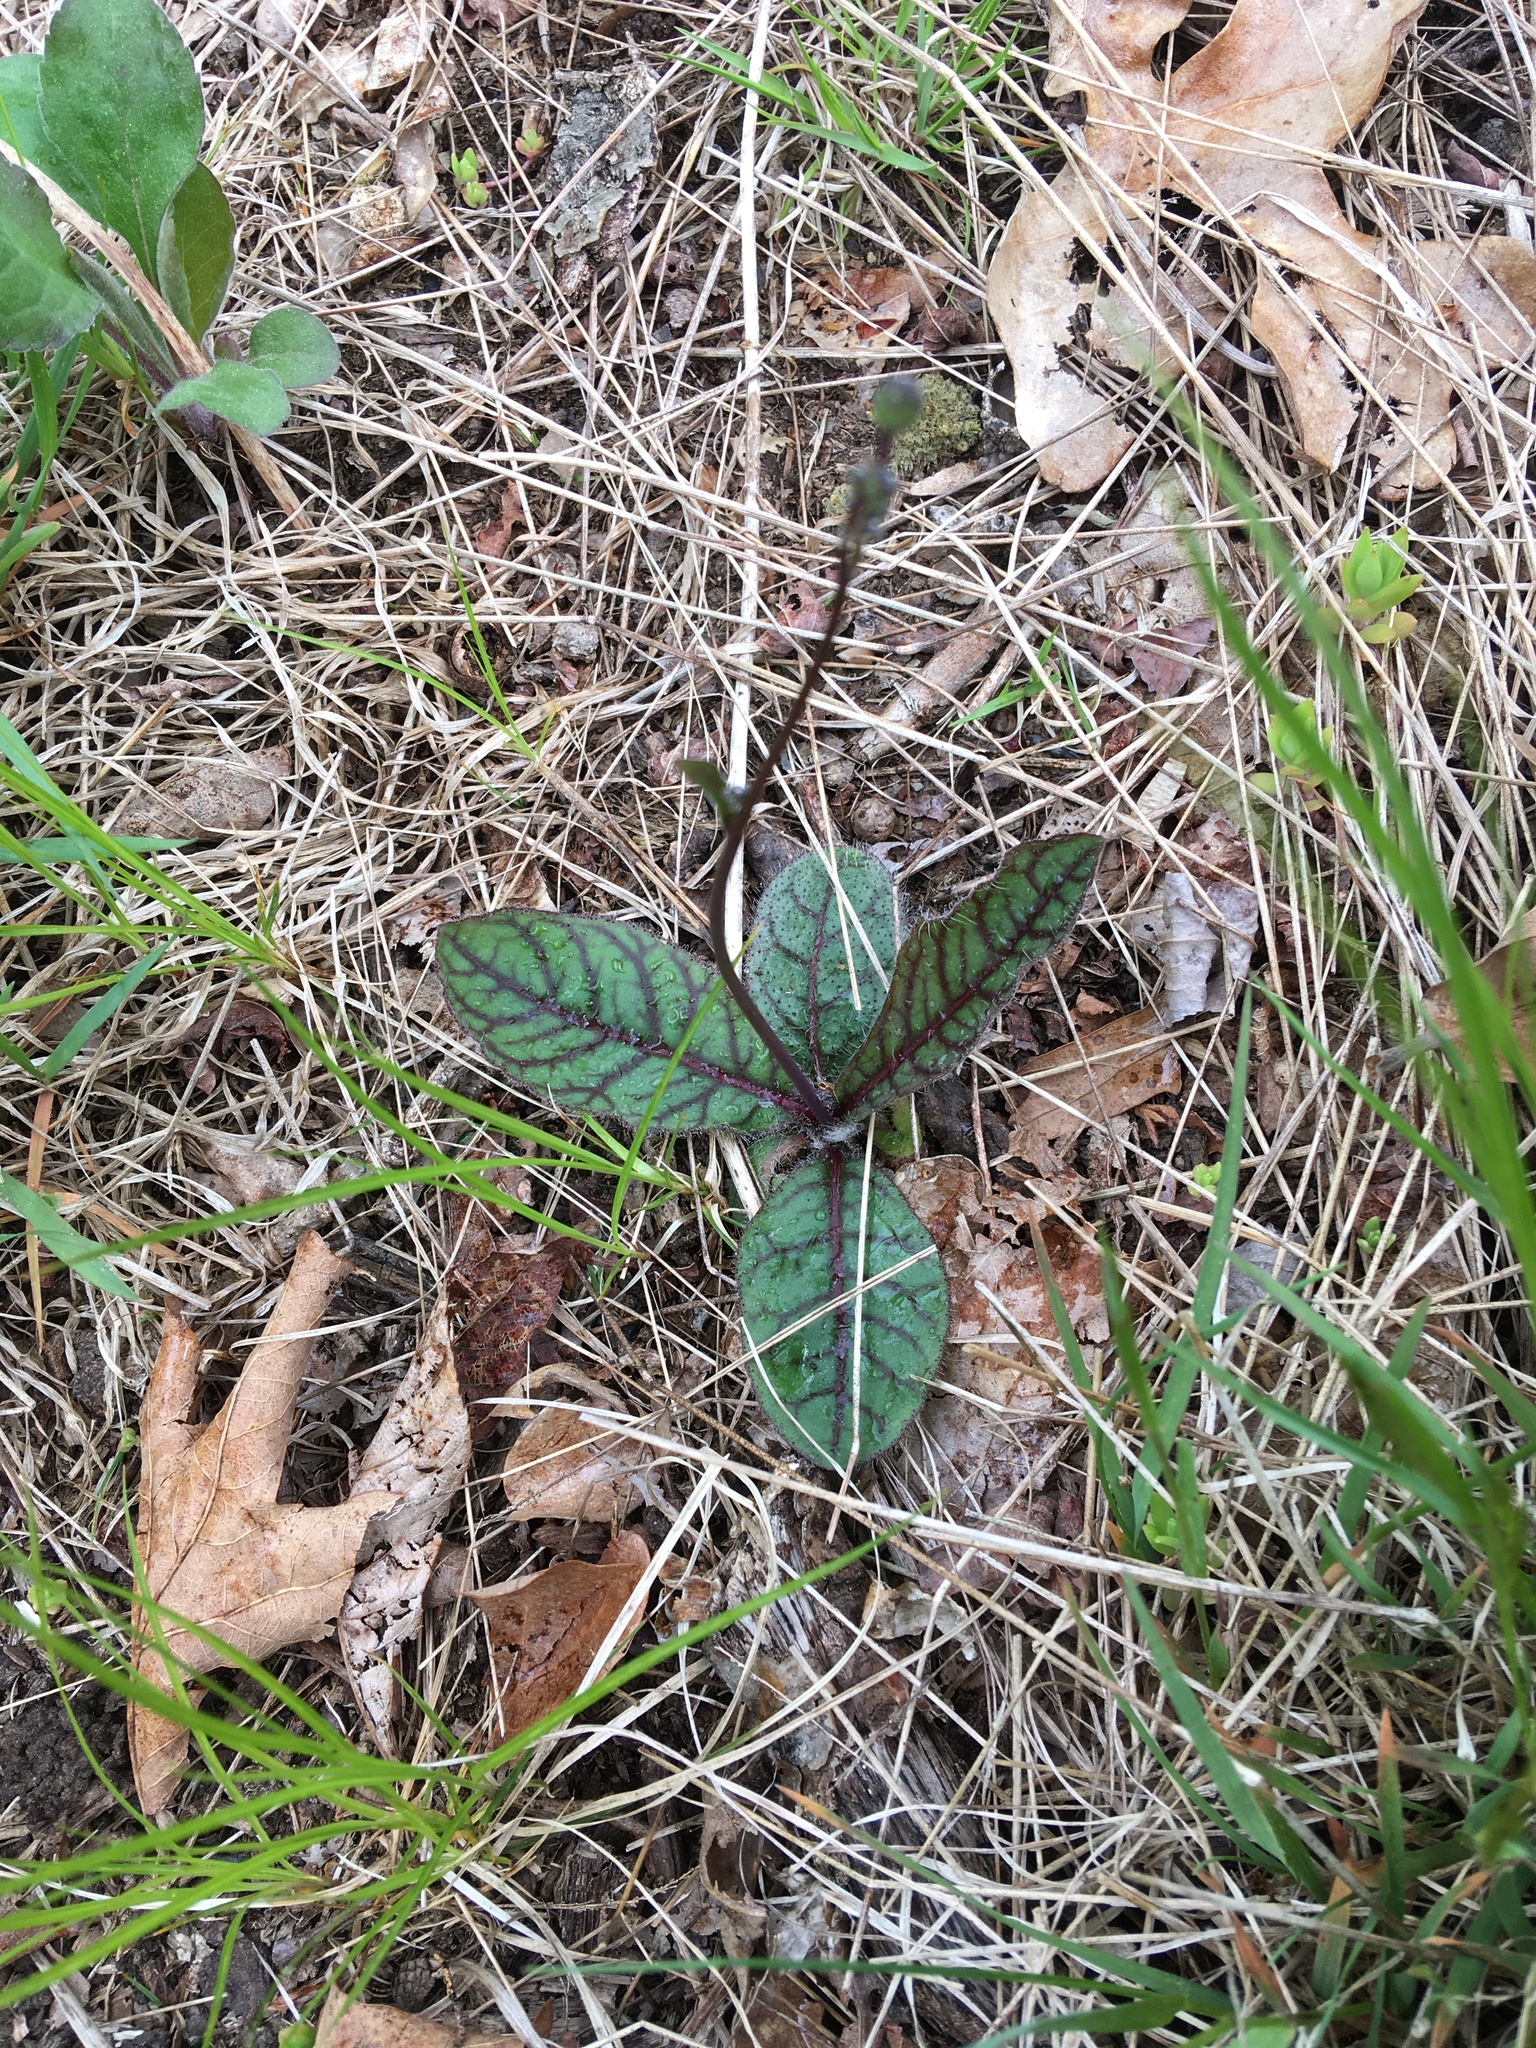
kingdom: Plantae
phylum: Tracheophyta
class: Magnoliopsida
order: Asterales
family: Asteraceae
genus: Hieracium
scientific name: Hieracium venosum
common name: Rattlesnake hawkweed
